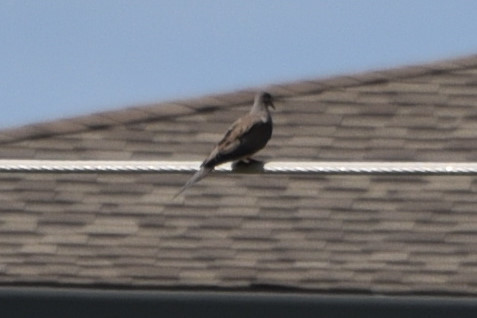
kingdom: Animalia
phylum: Chordata
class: Aves
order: Columbiformes
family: Columbidae
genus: Zenaida
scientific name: Zenaida macroura
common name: Mourning dove
